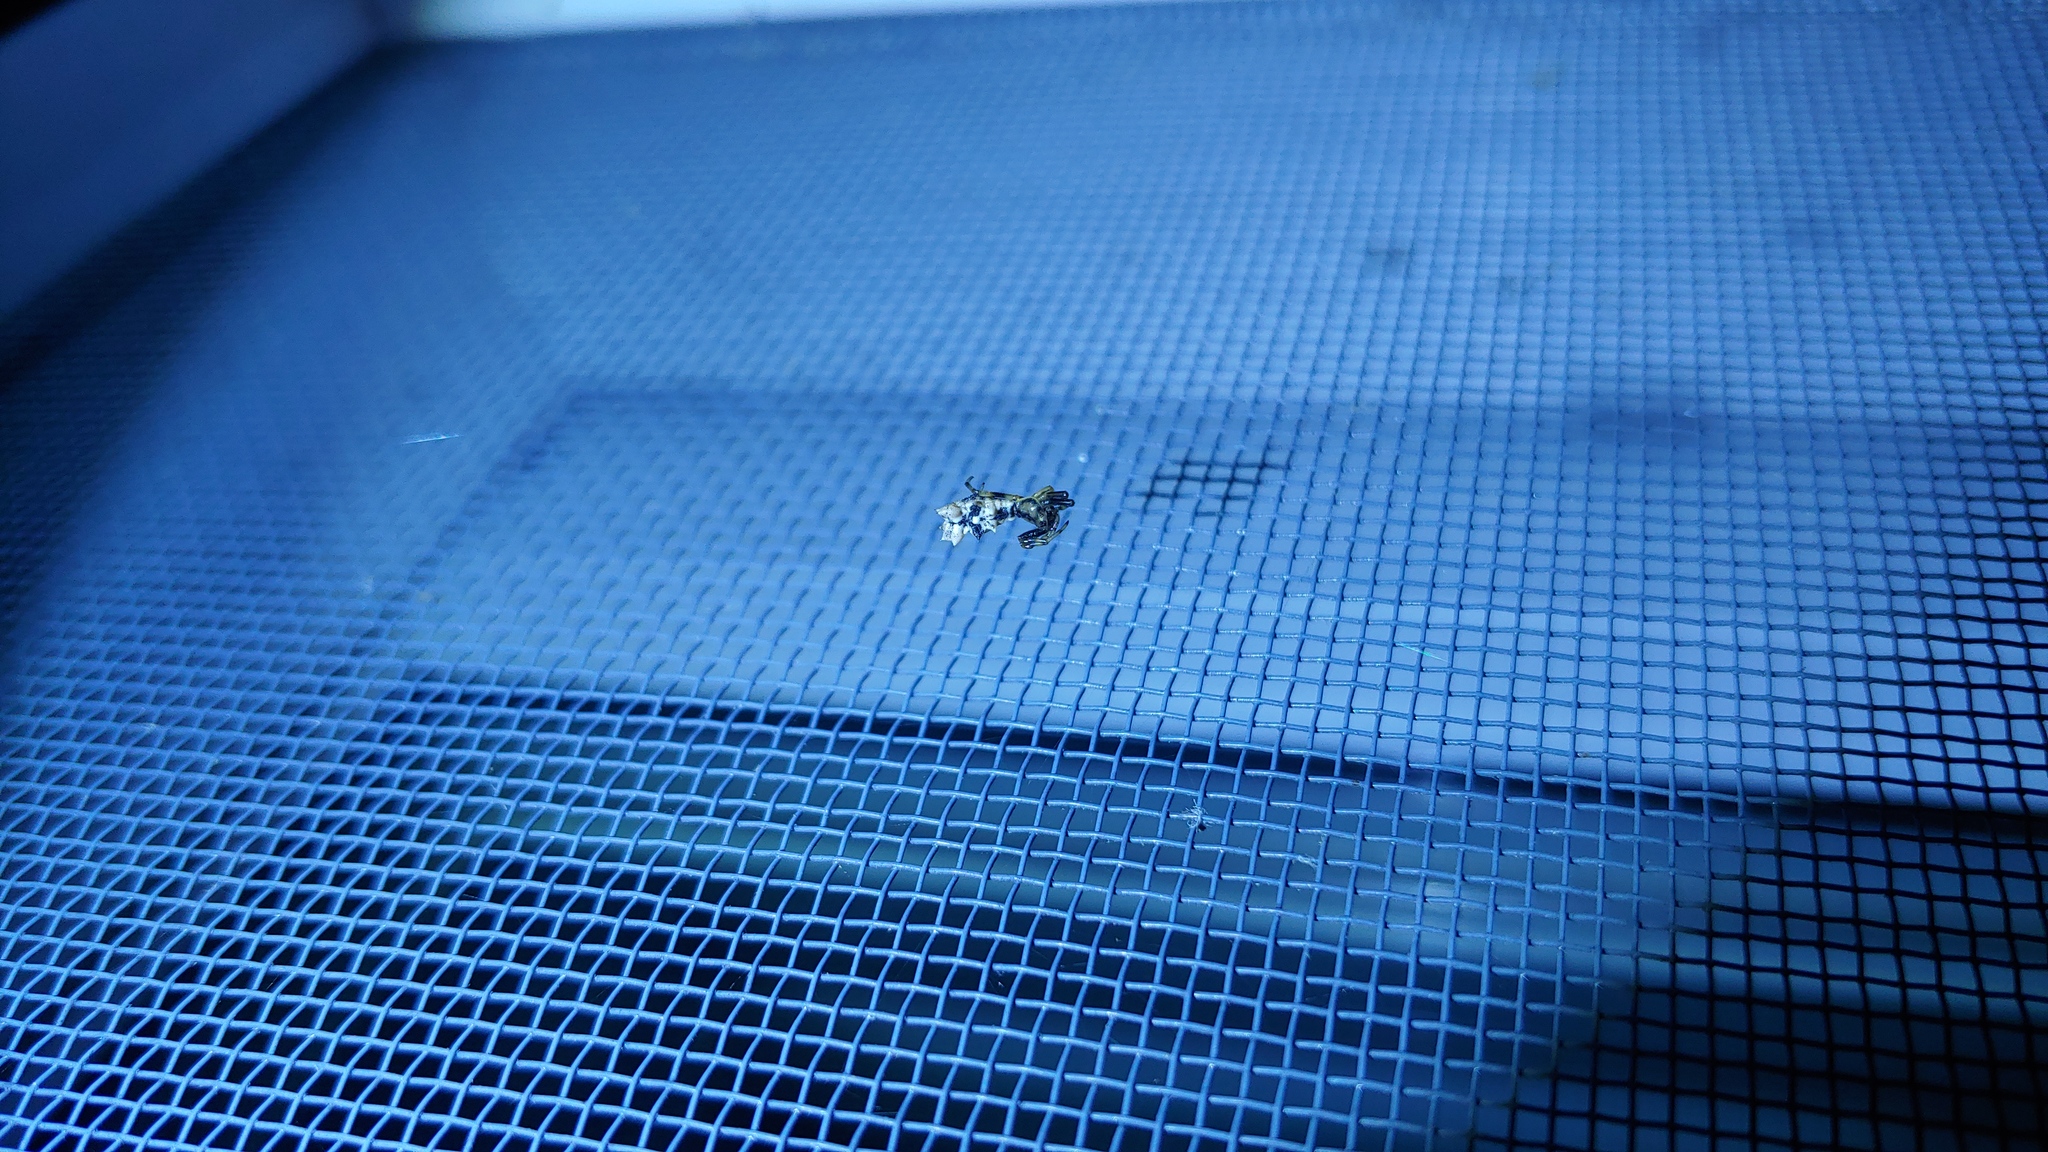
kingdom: Animalia
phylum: Arthropoda
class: Arachnida
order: Araneae
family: Araneidae
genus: Micrathena
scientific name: Micrathena gracilis
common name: Orb weavers
